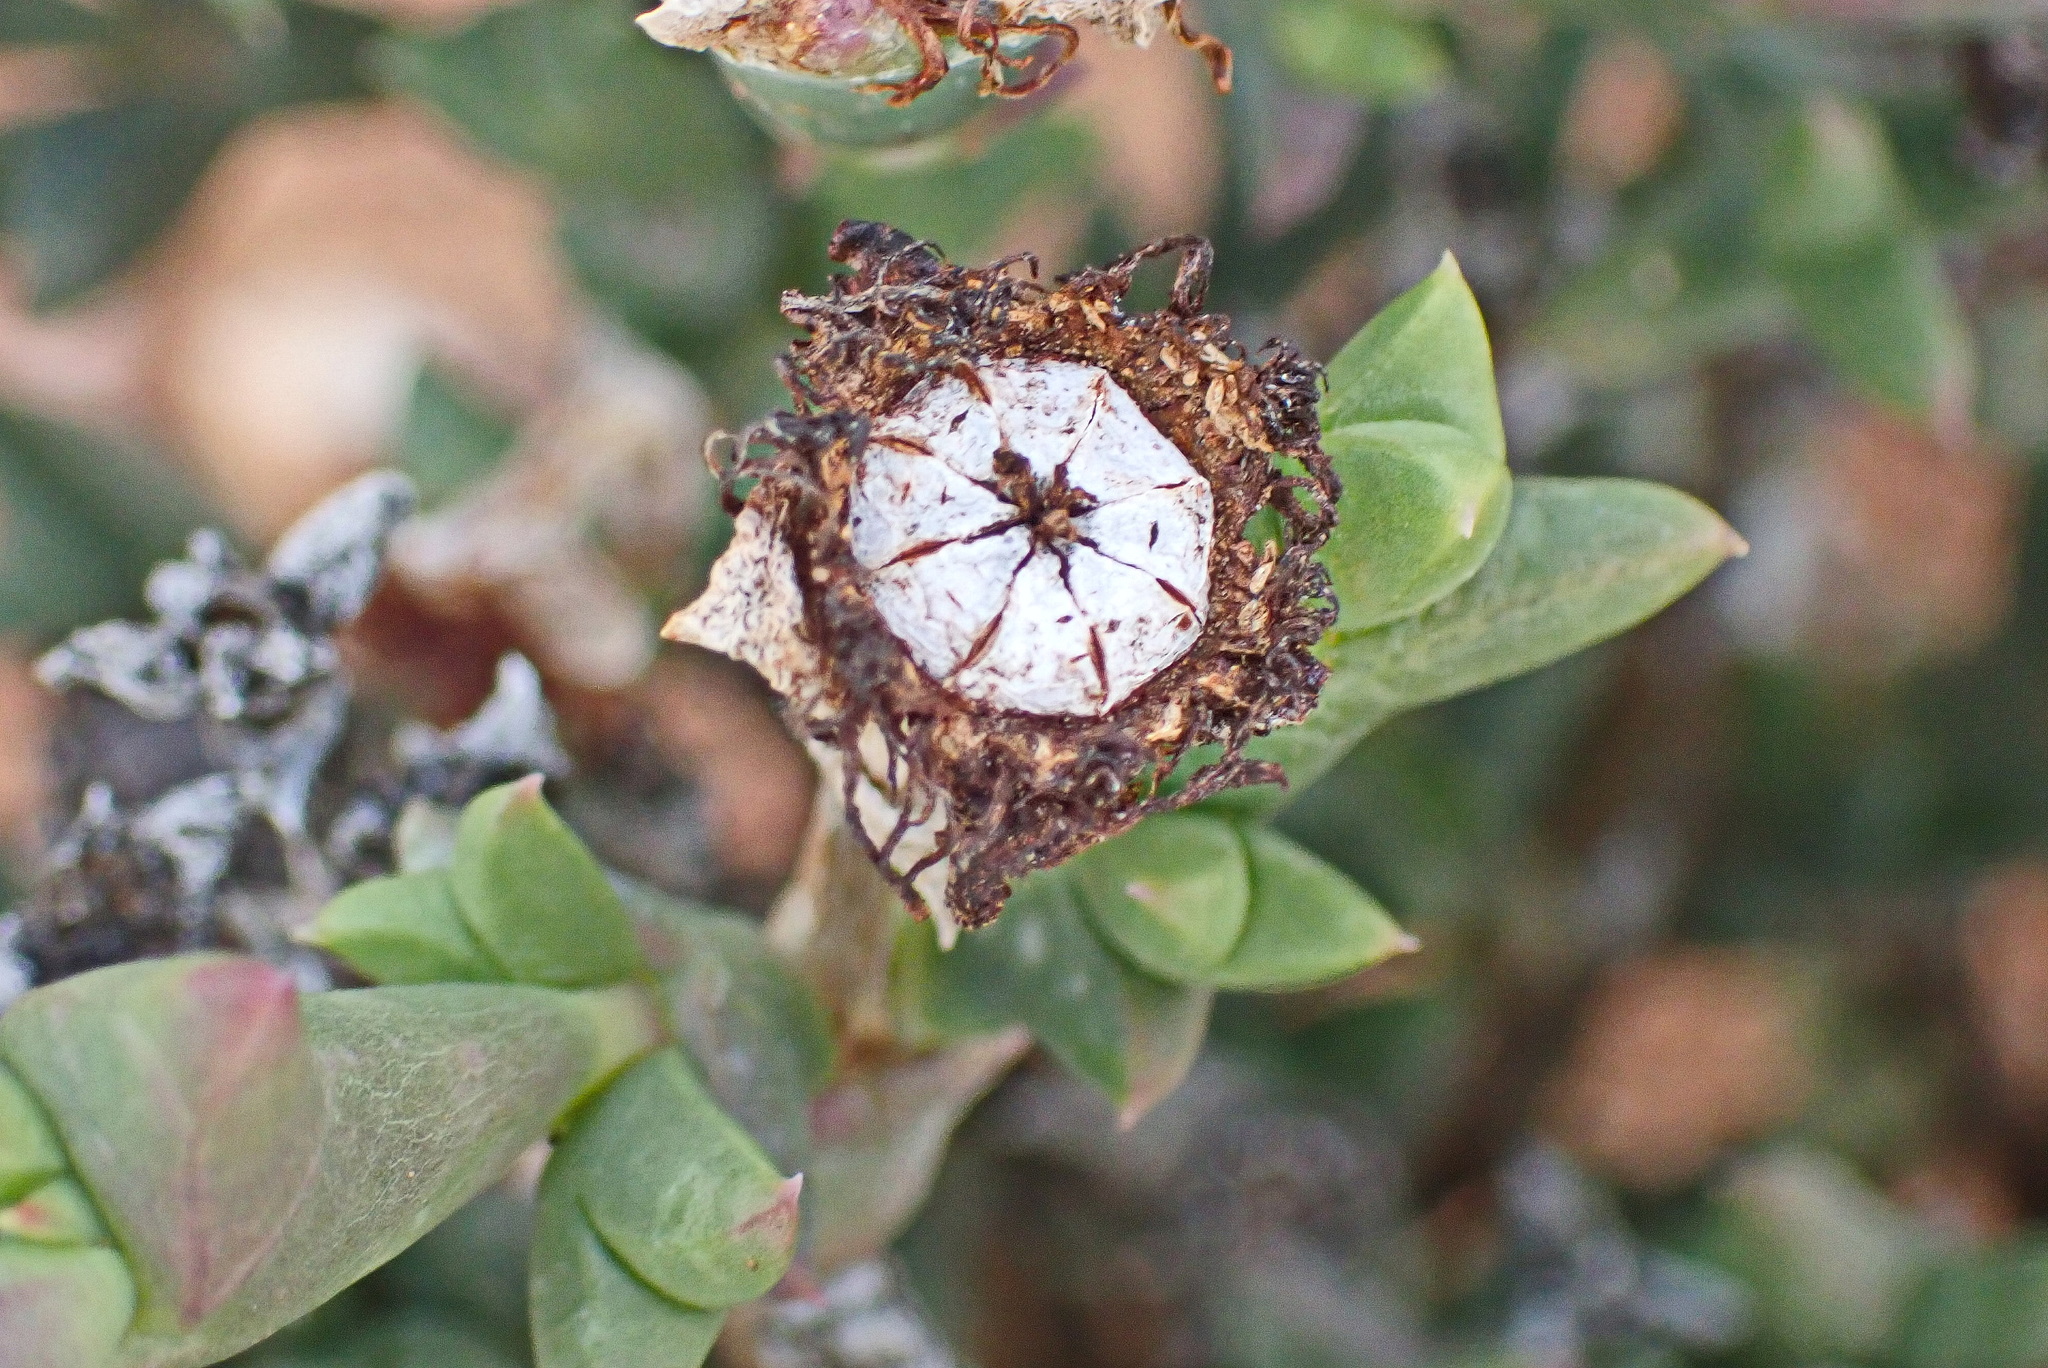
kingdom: Plantae
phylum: Tracheophyta
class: Magnoliopsida
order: Caryophyllales
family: Aizoaceae
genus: Smicrostigma
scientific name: Smicrostigma viride
